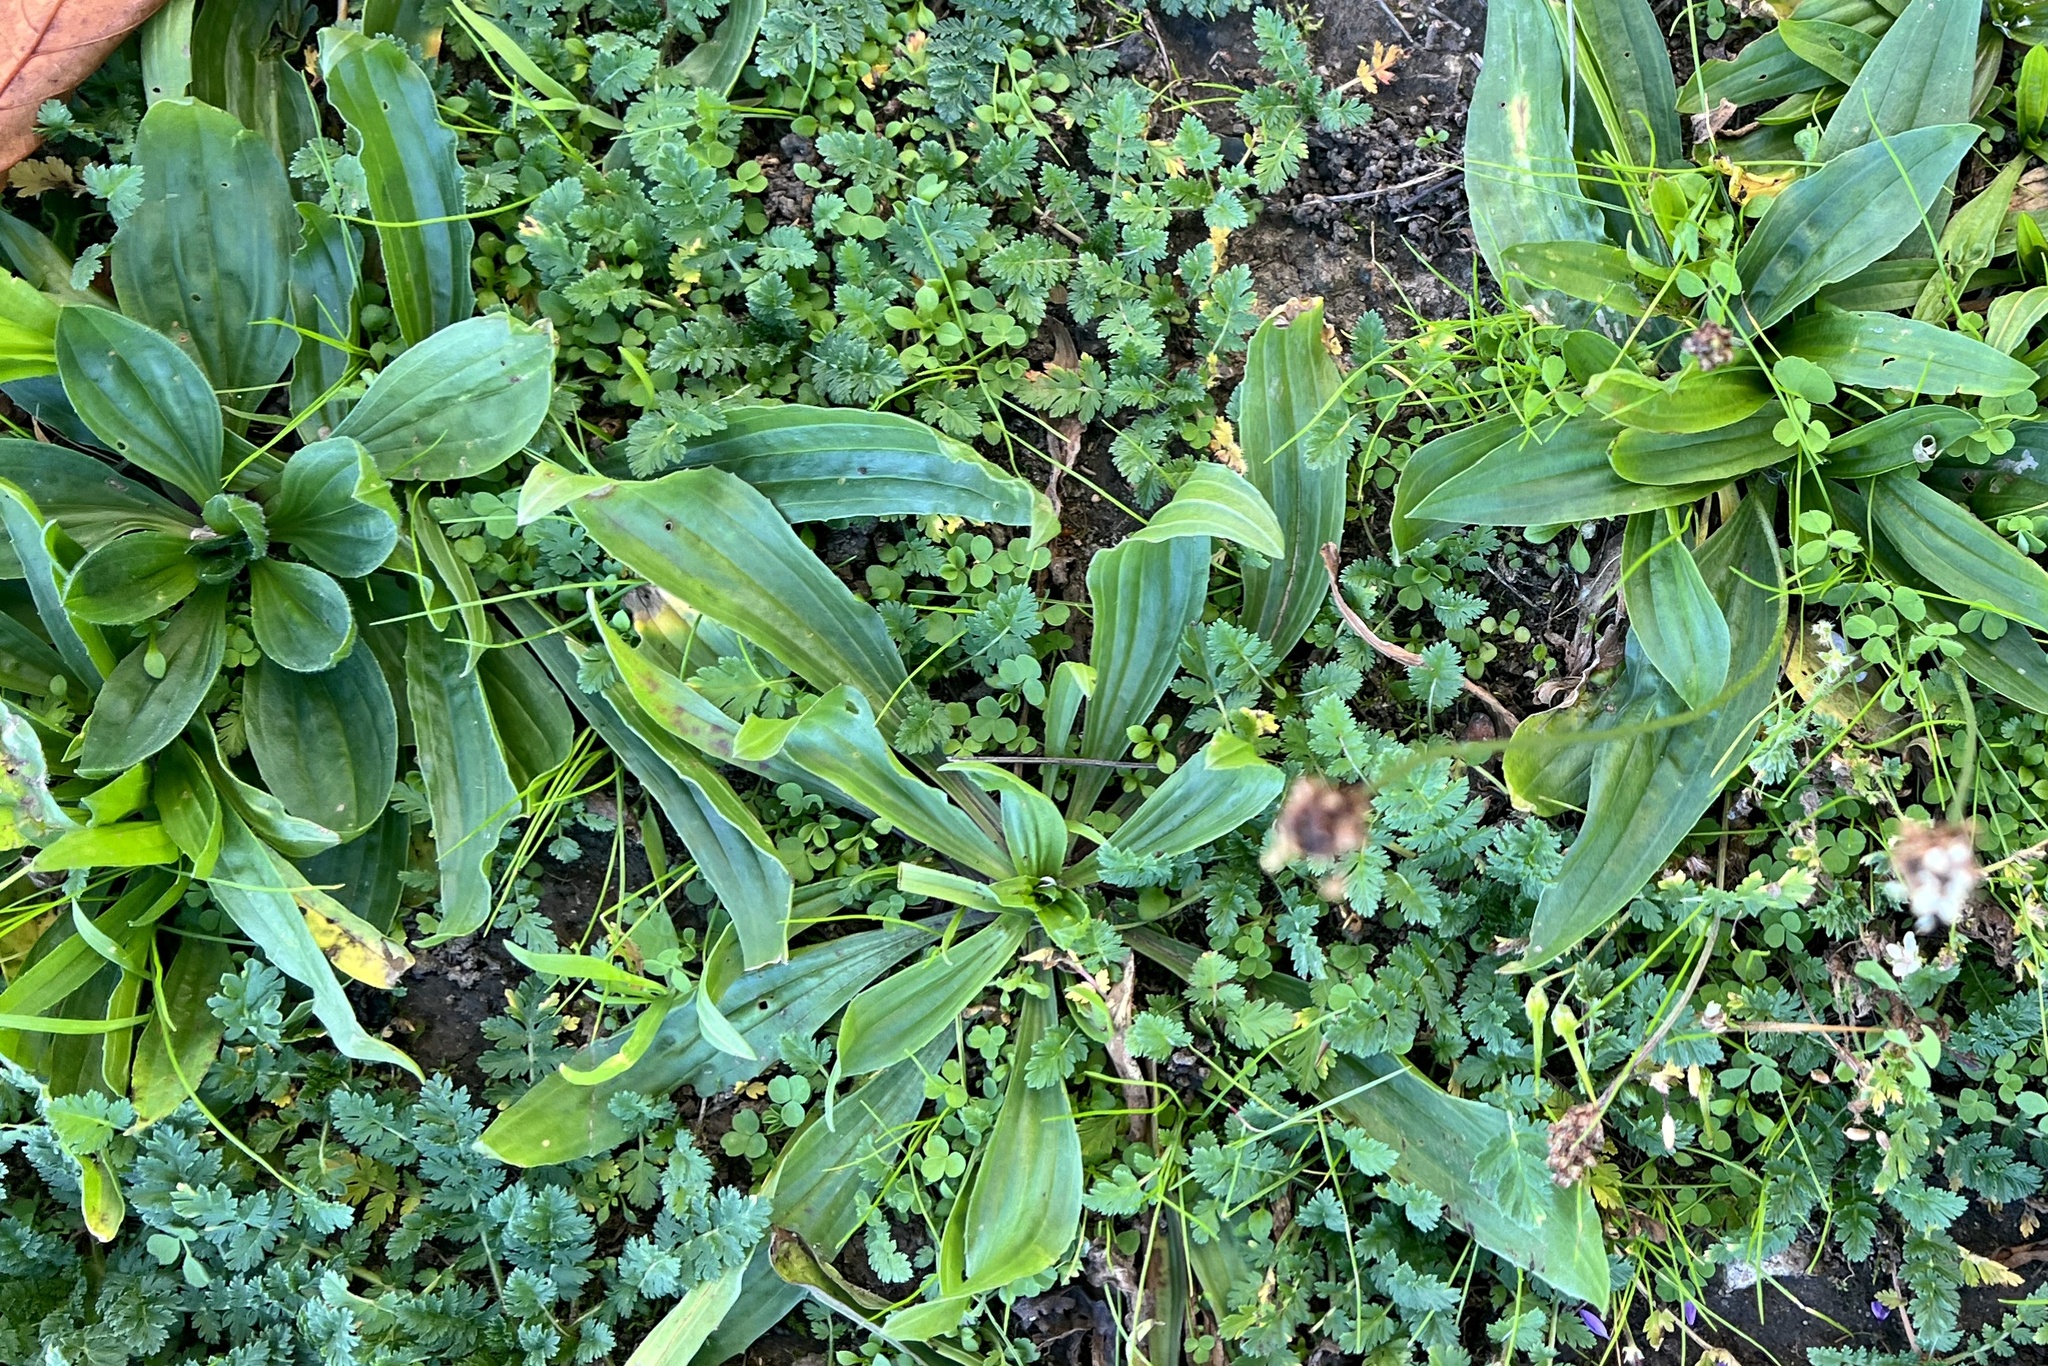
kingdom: Plantae
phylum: Tracheophyta
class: Magnoliopsida
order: Lamiales
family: Plantaginaceae
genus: Plantago
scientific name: Plantago lanceolata
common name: Ribwort plantain
